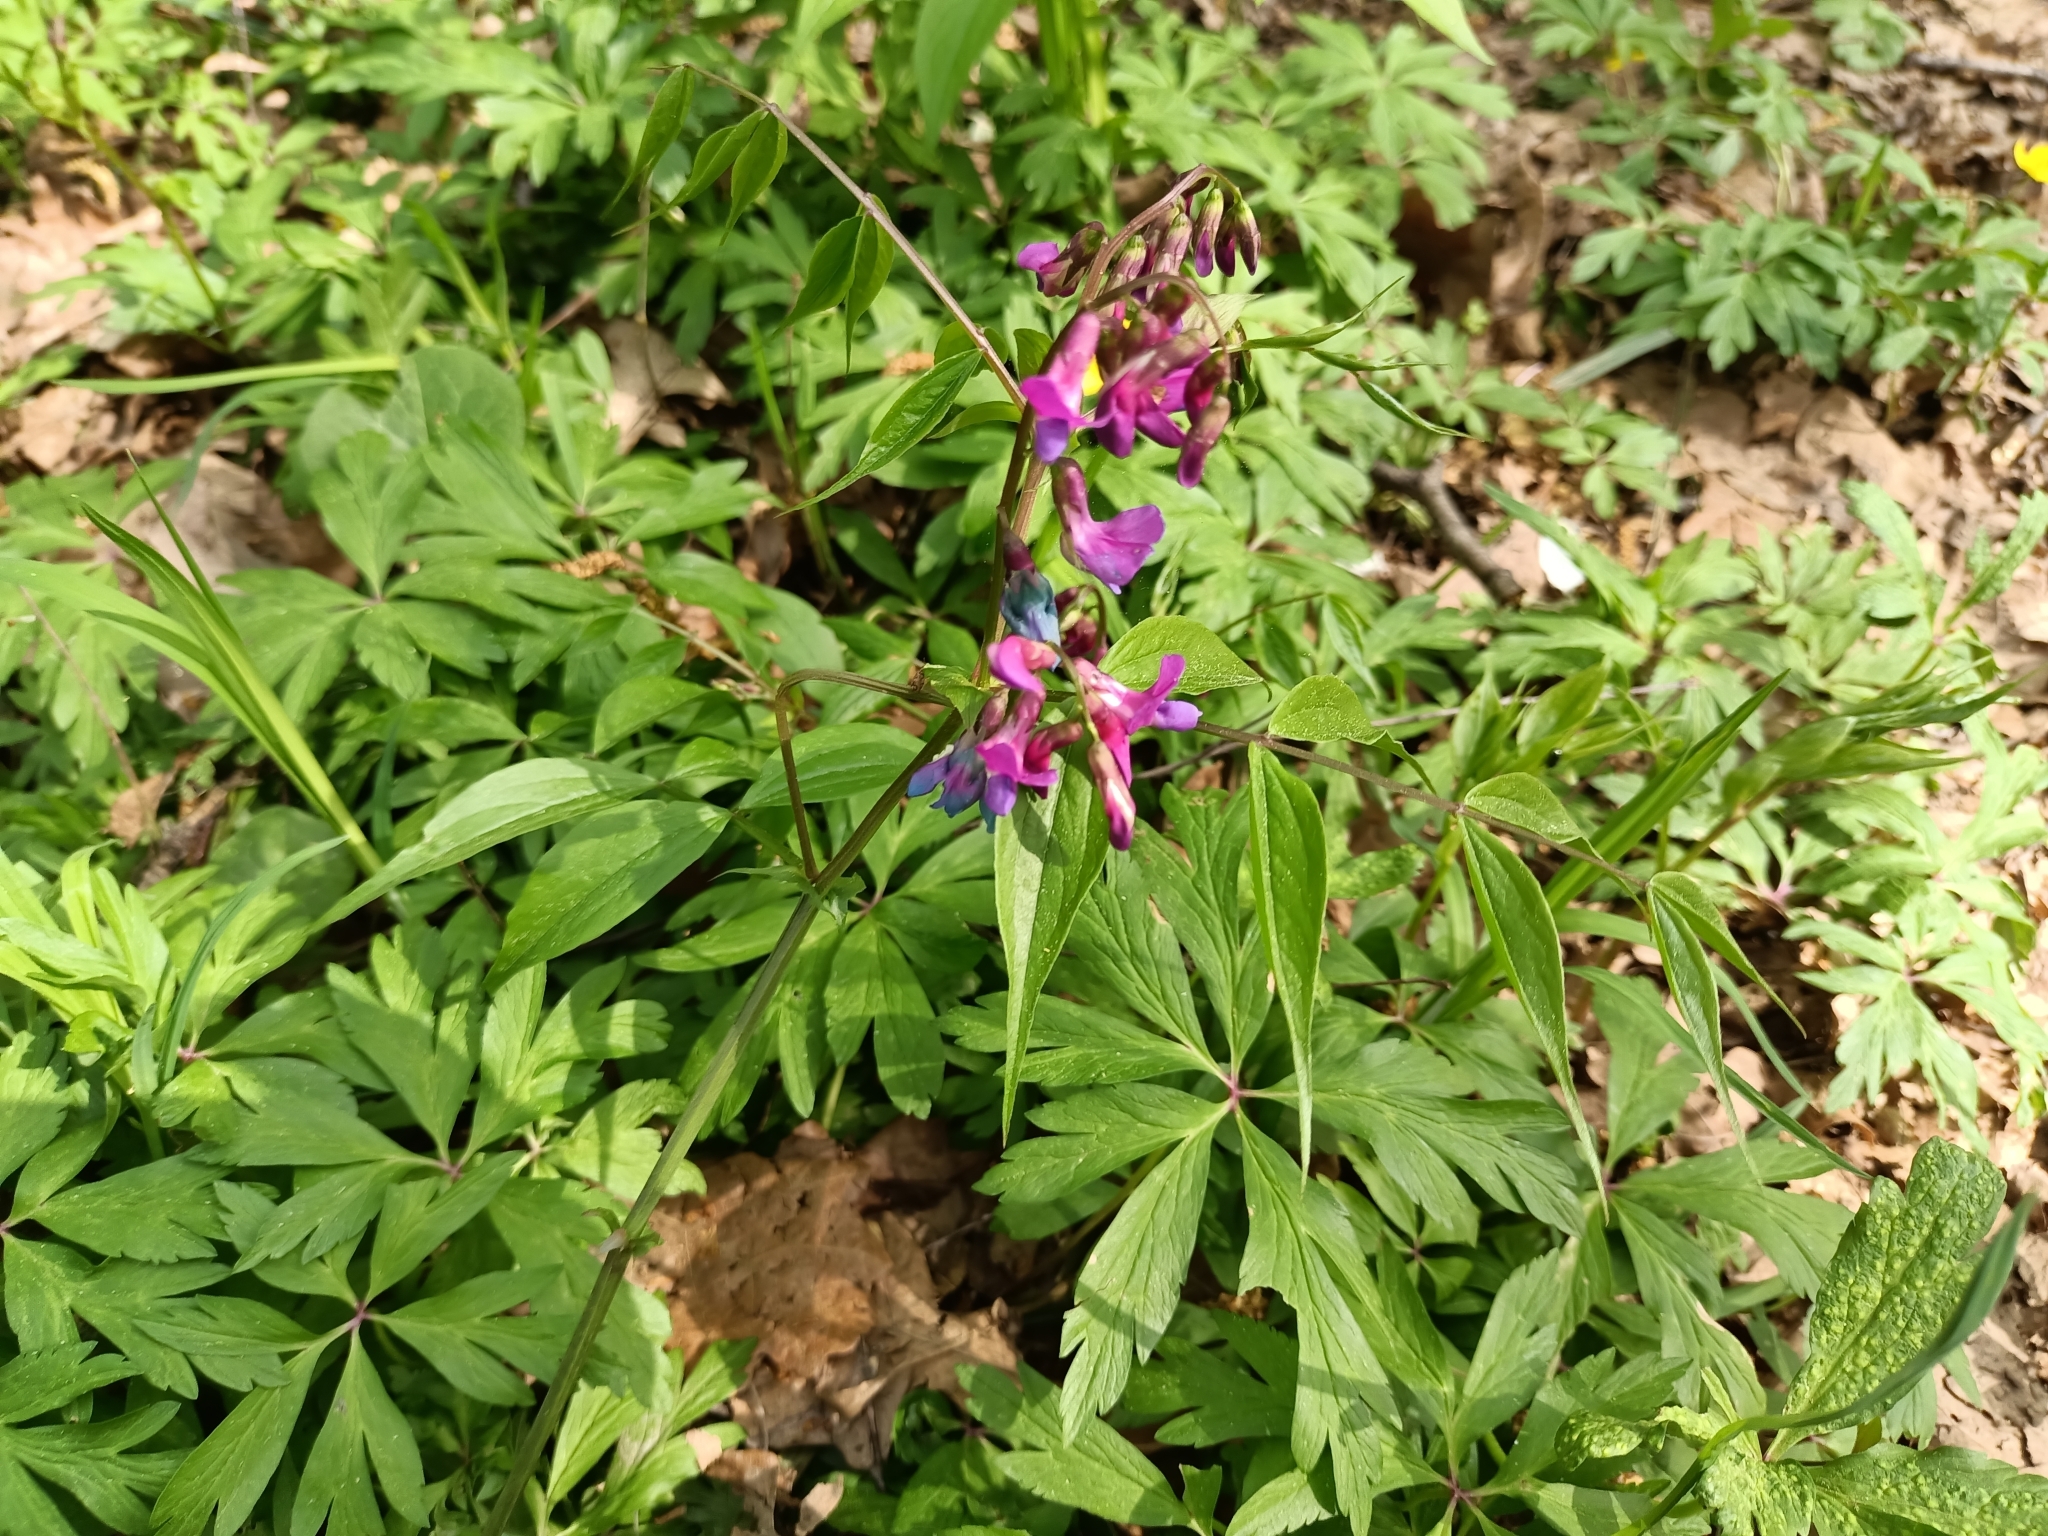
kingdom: Plantae
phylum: Tracheophyta
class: Magnoliopsida
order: Fabales
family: Fabaceae
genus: Lathyrus
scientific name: Lathyrus vernus
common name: Spring pea
